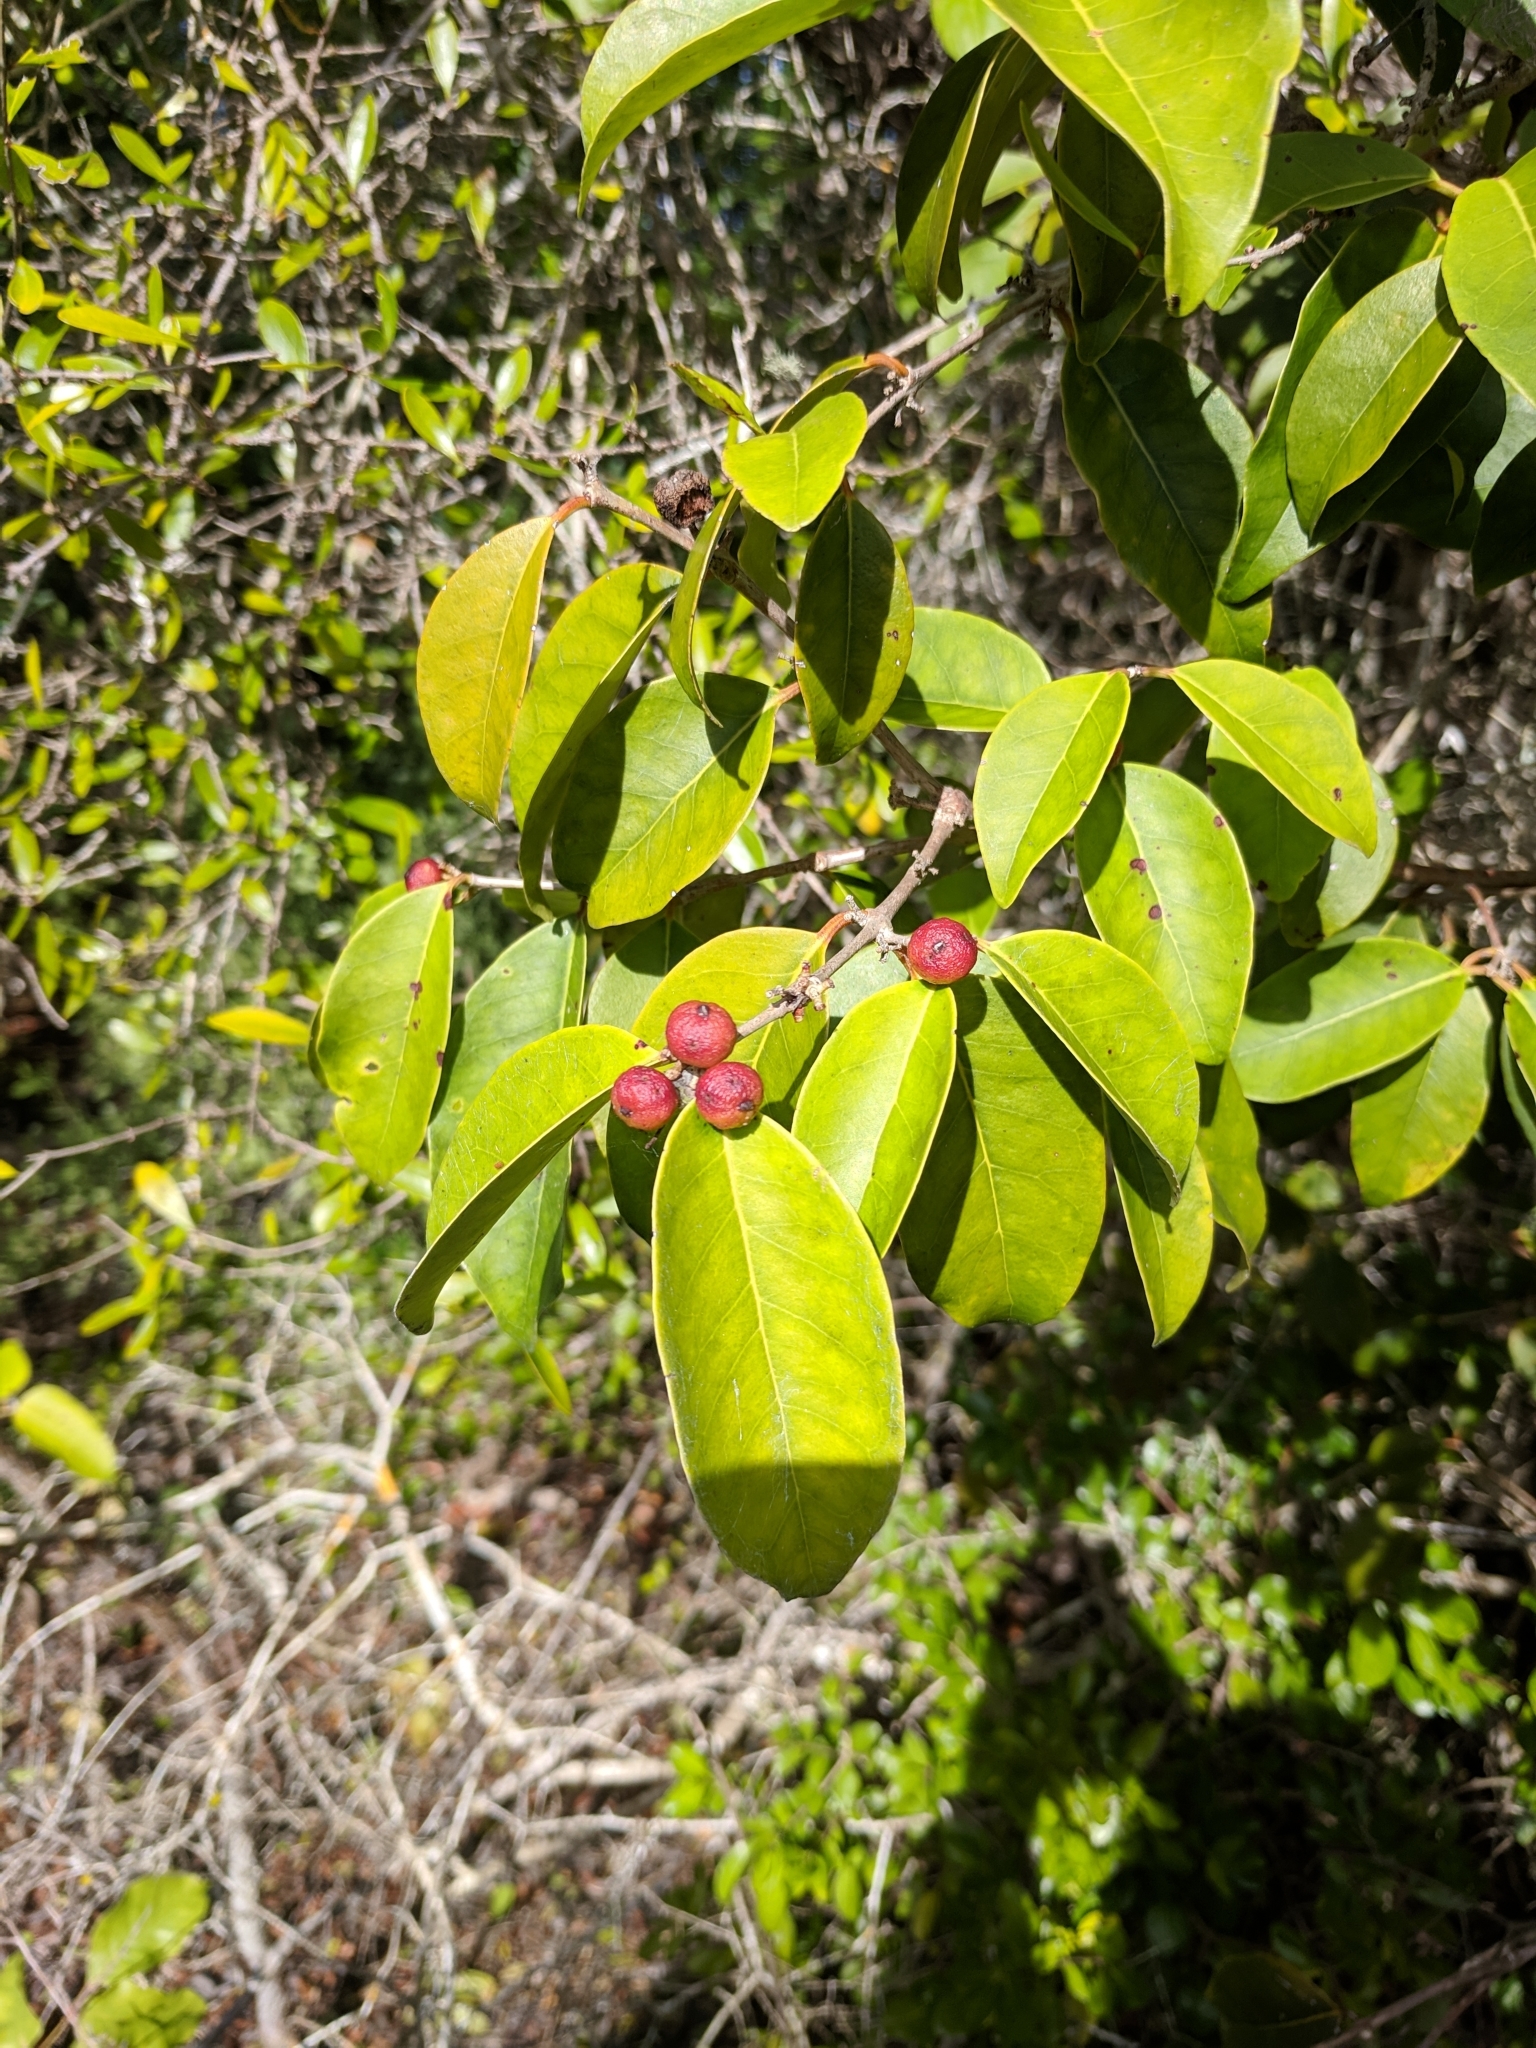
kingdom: Plantae
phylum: Tracheophyta
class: Magnoliopsida
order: Myrtales
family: Myrtaceae
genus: Eugenia
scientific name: Eugenia axillaris
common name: Choaky berry
